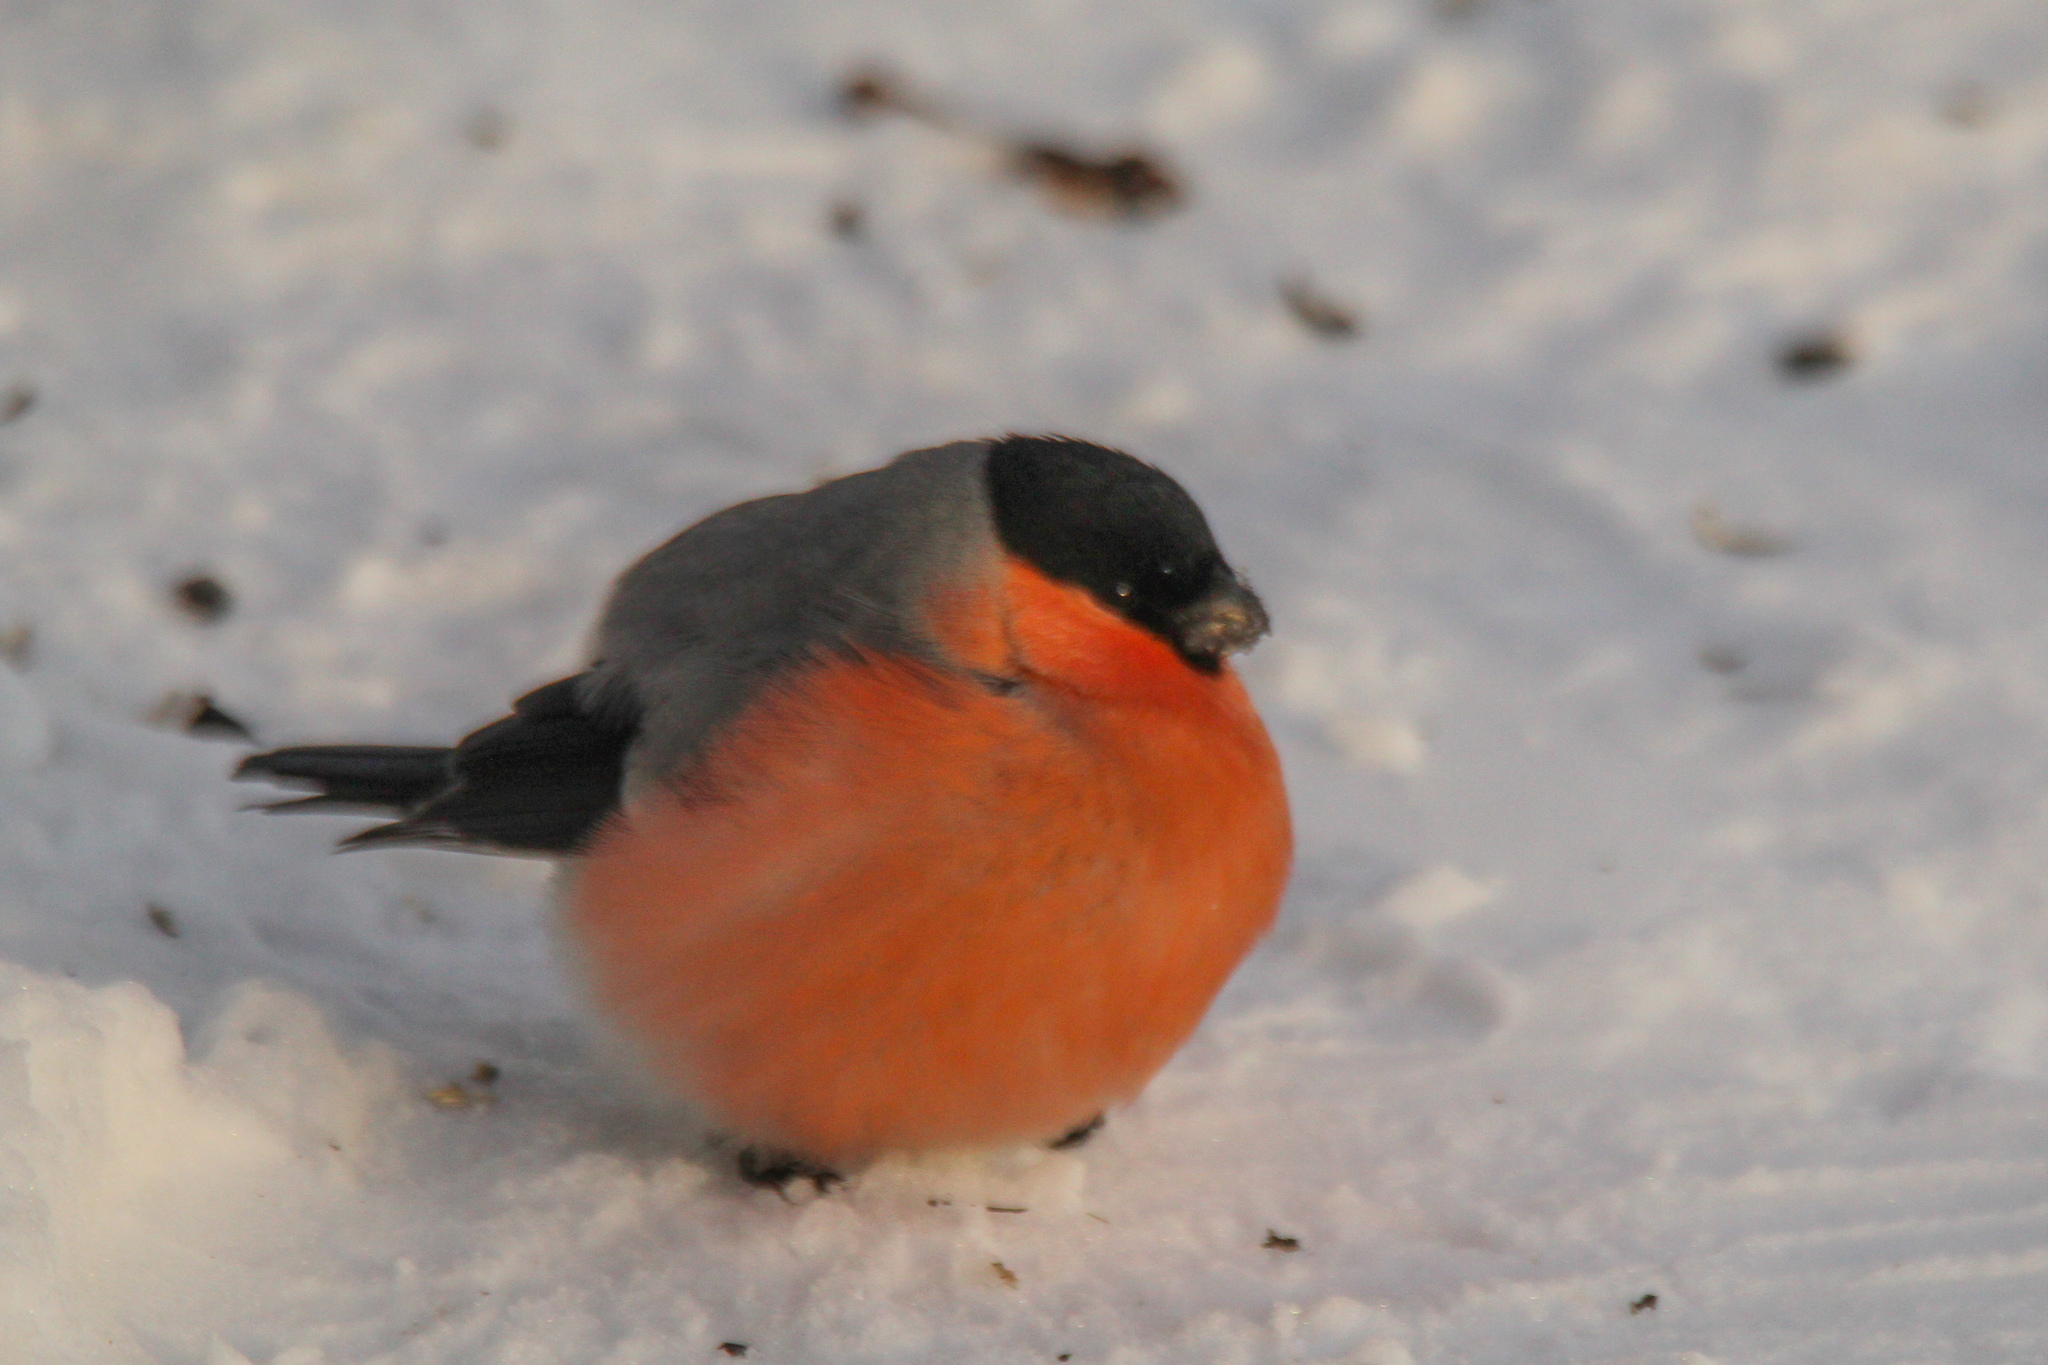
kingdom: Animalia
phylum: Chordata
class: Aves
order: Passeriformes
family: Fringillidae
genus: Pyrrhula
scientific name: Pyrrhula pyrrhula
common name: Eurasian bullfinch
